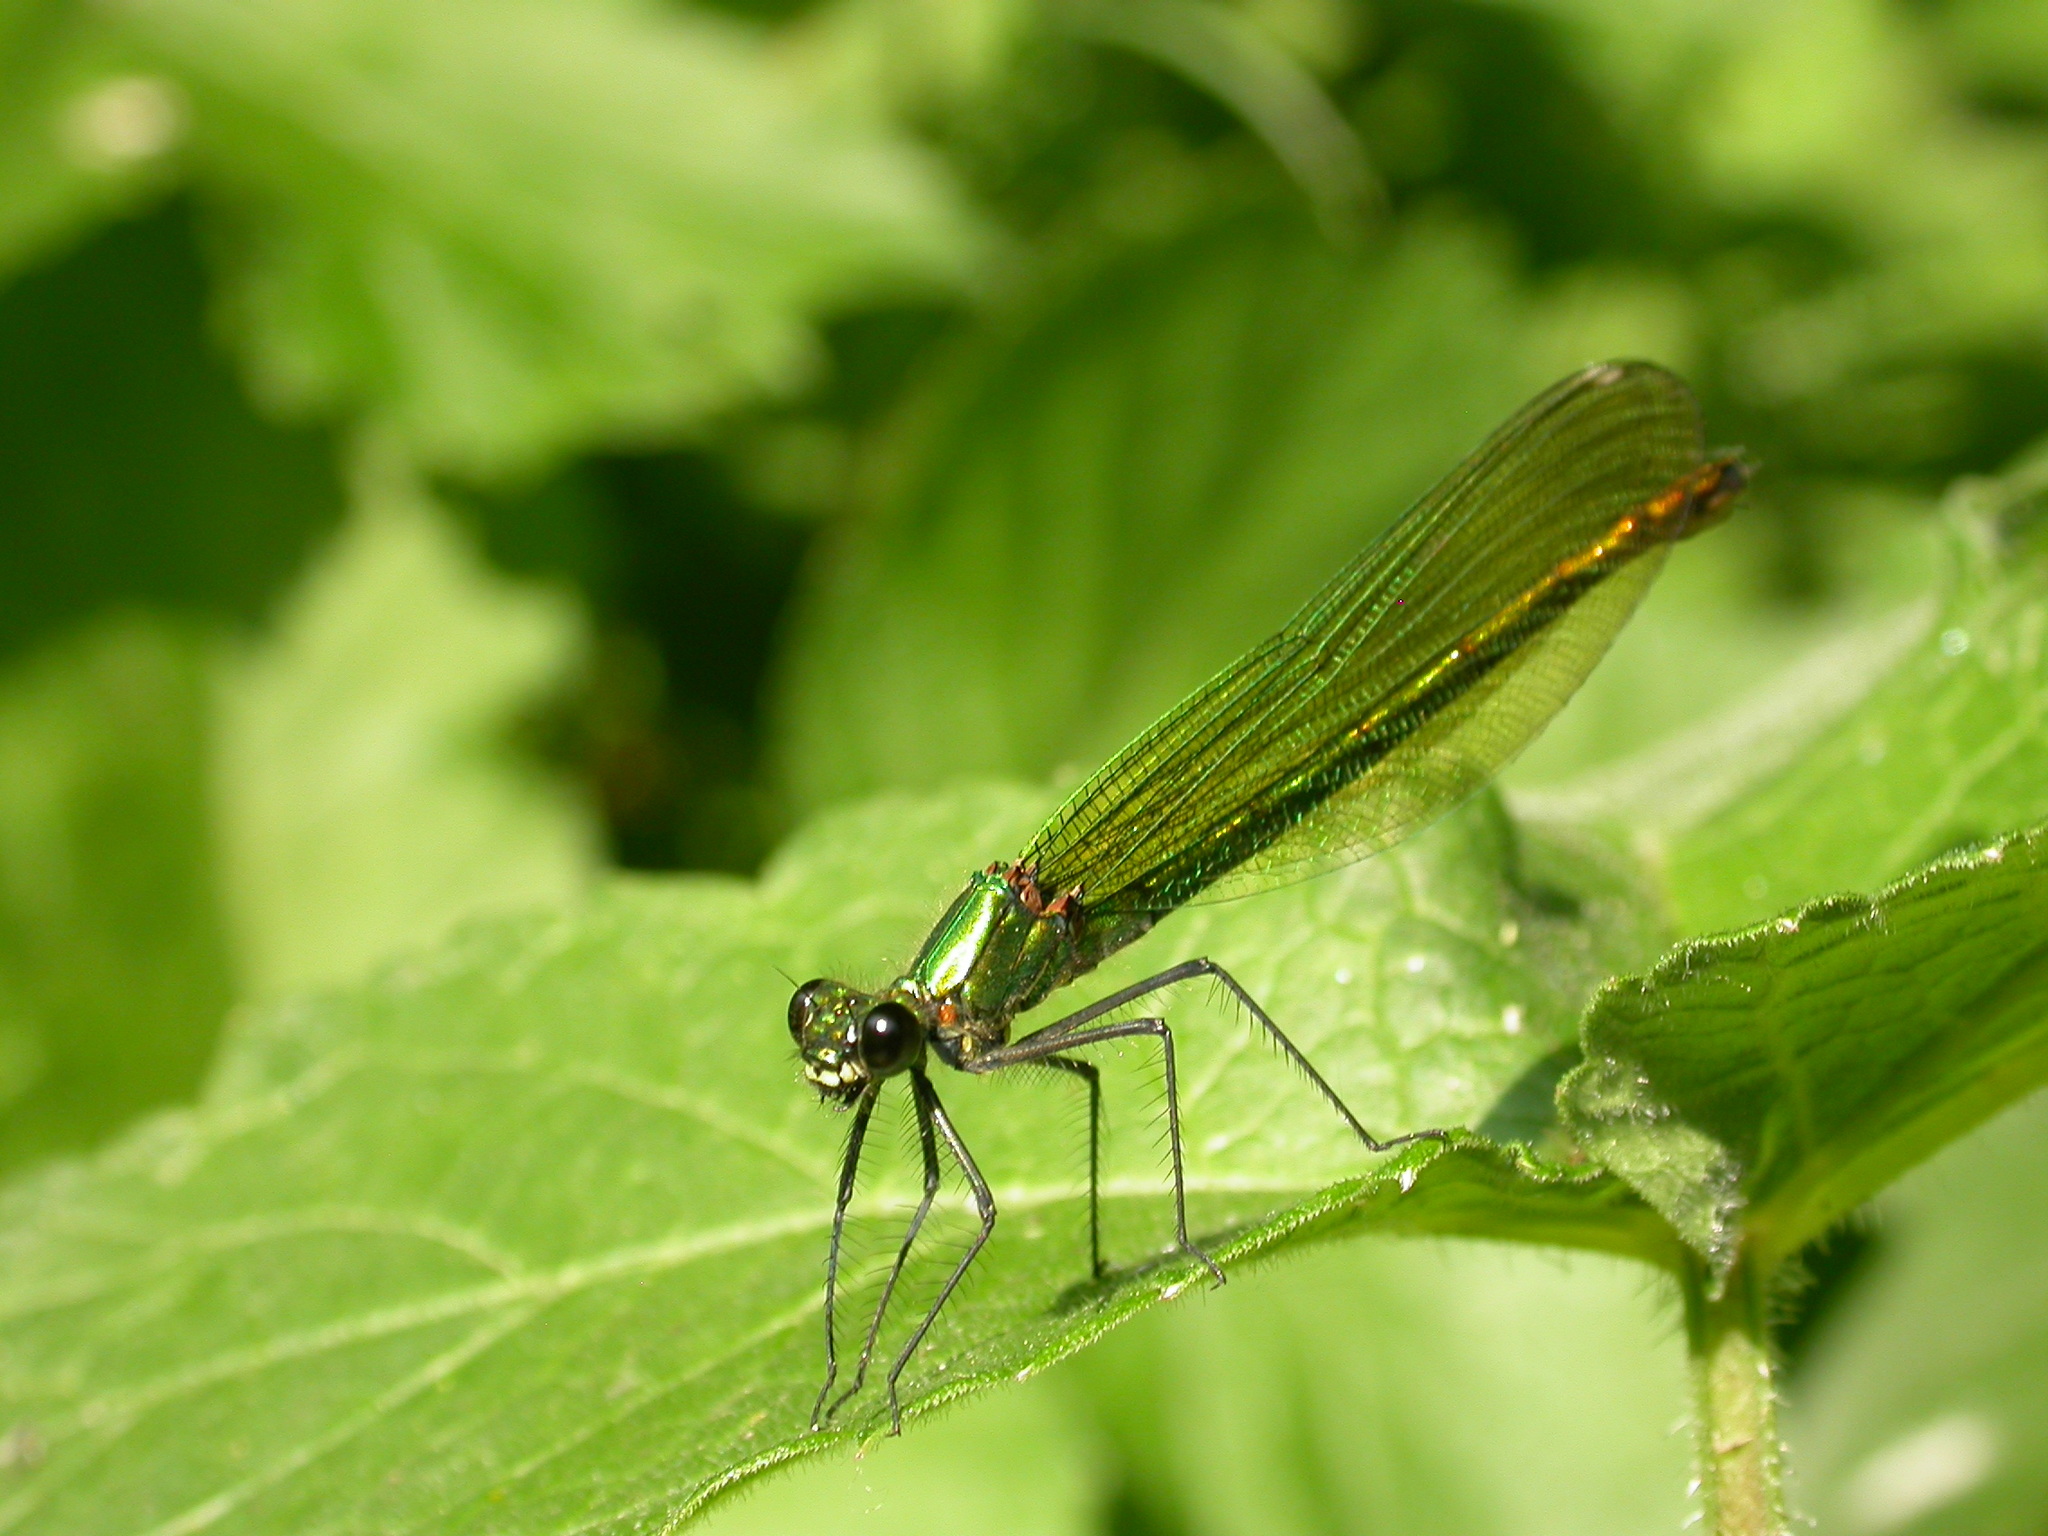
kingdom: Animalia
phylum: Arthropoda
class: Insecta
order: Odonata
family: Calopterygidae
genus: Calopteryx
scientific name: Calopteryx splendens
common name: Banded demoiselle
